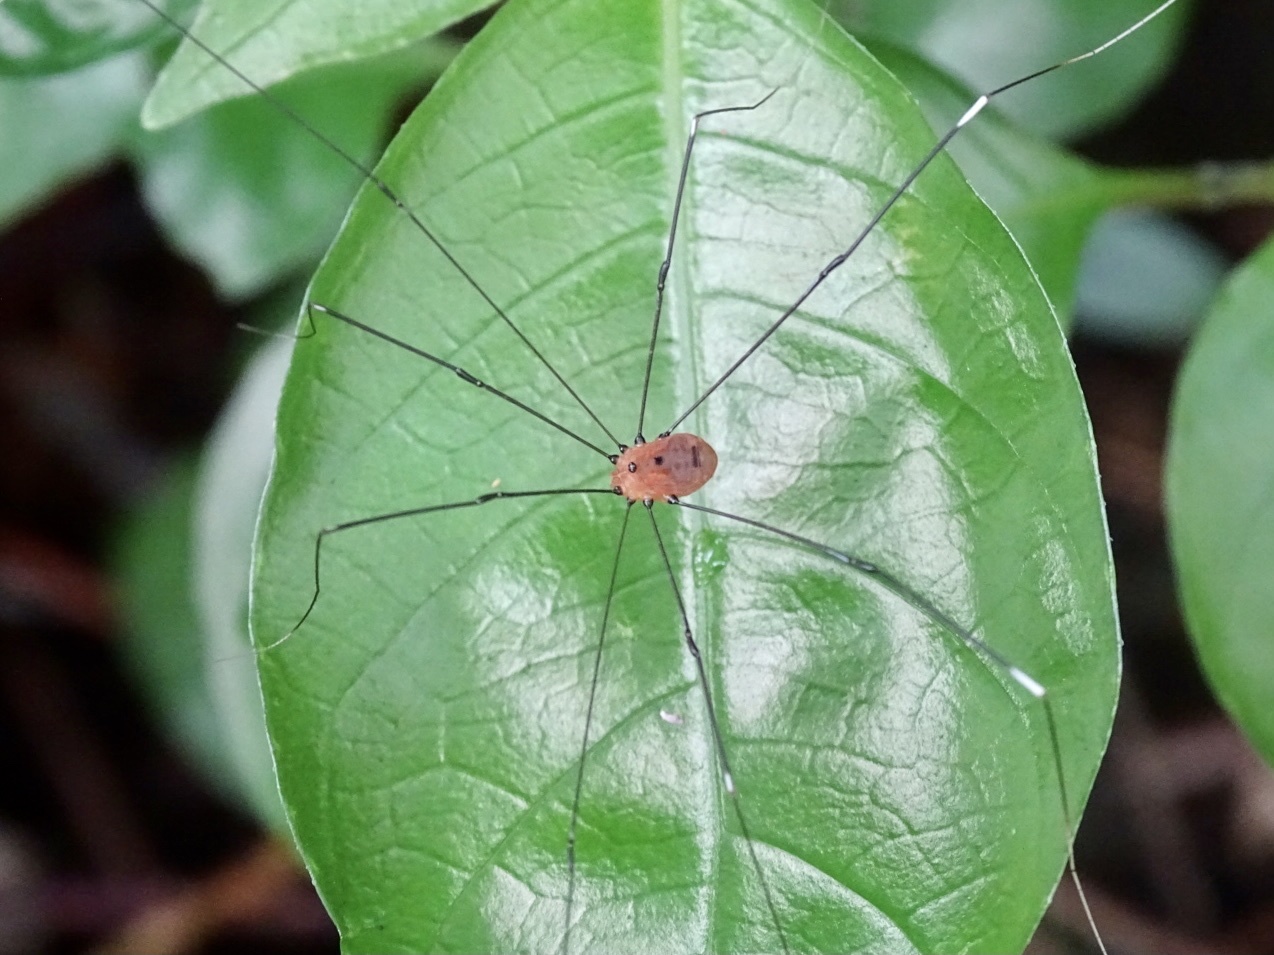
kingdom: Animalia
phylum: Arthropoda
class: Arachnida
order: Opiliones
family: Sclerosomatidae
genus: Pseudogagrella
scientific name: Pseudogagrella splendens
